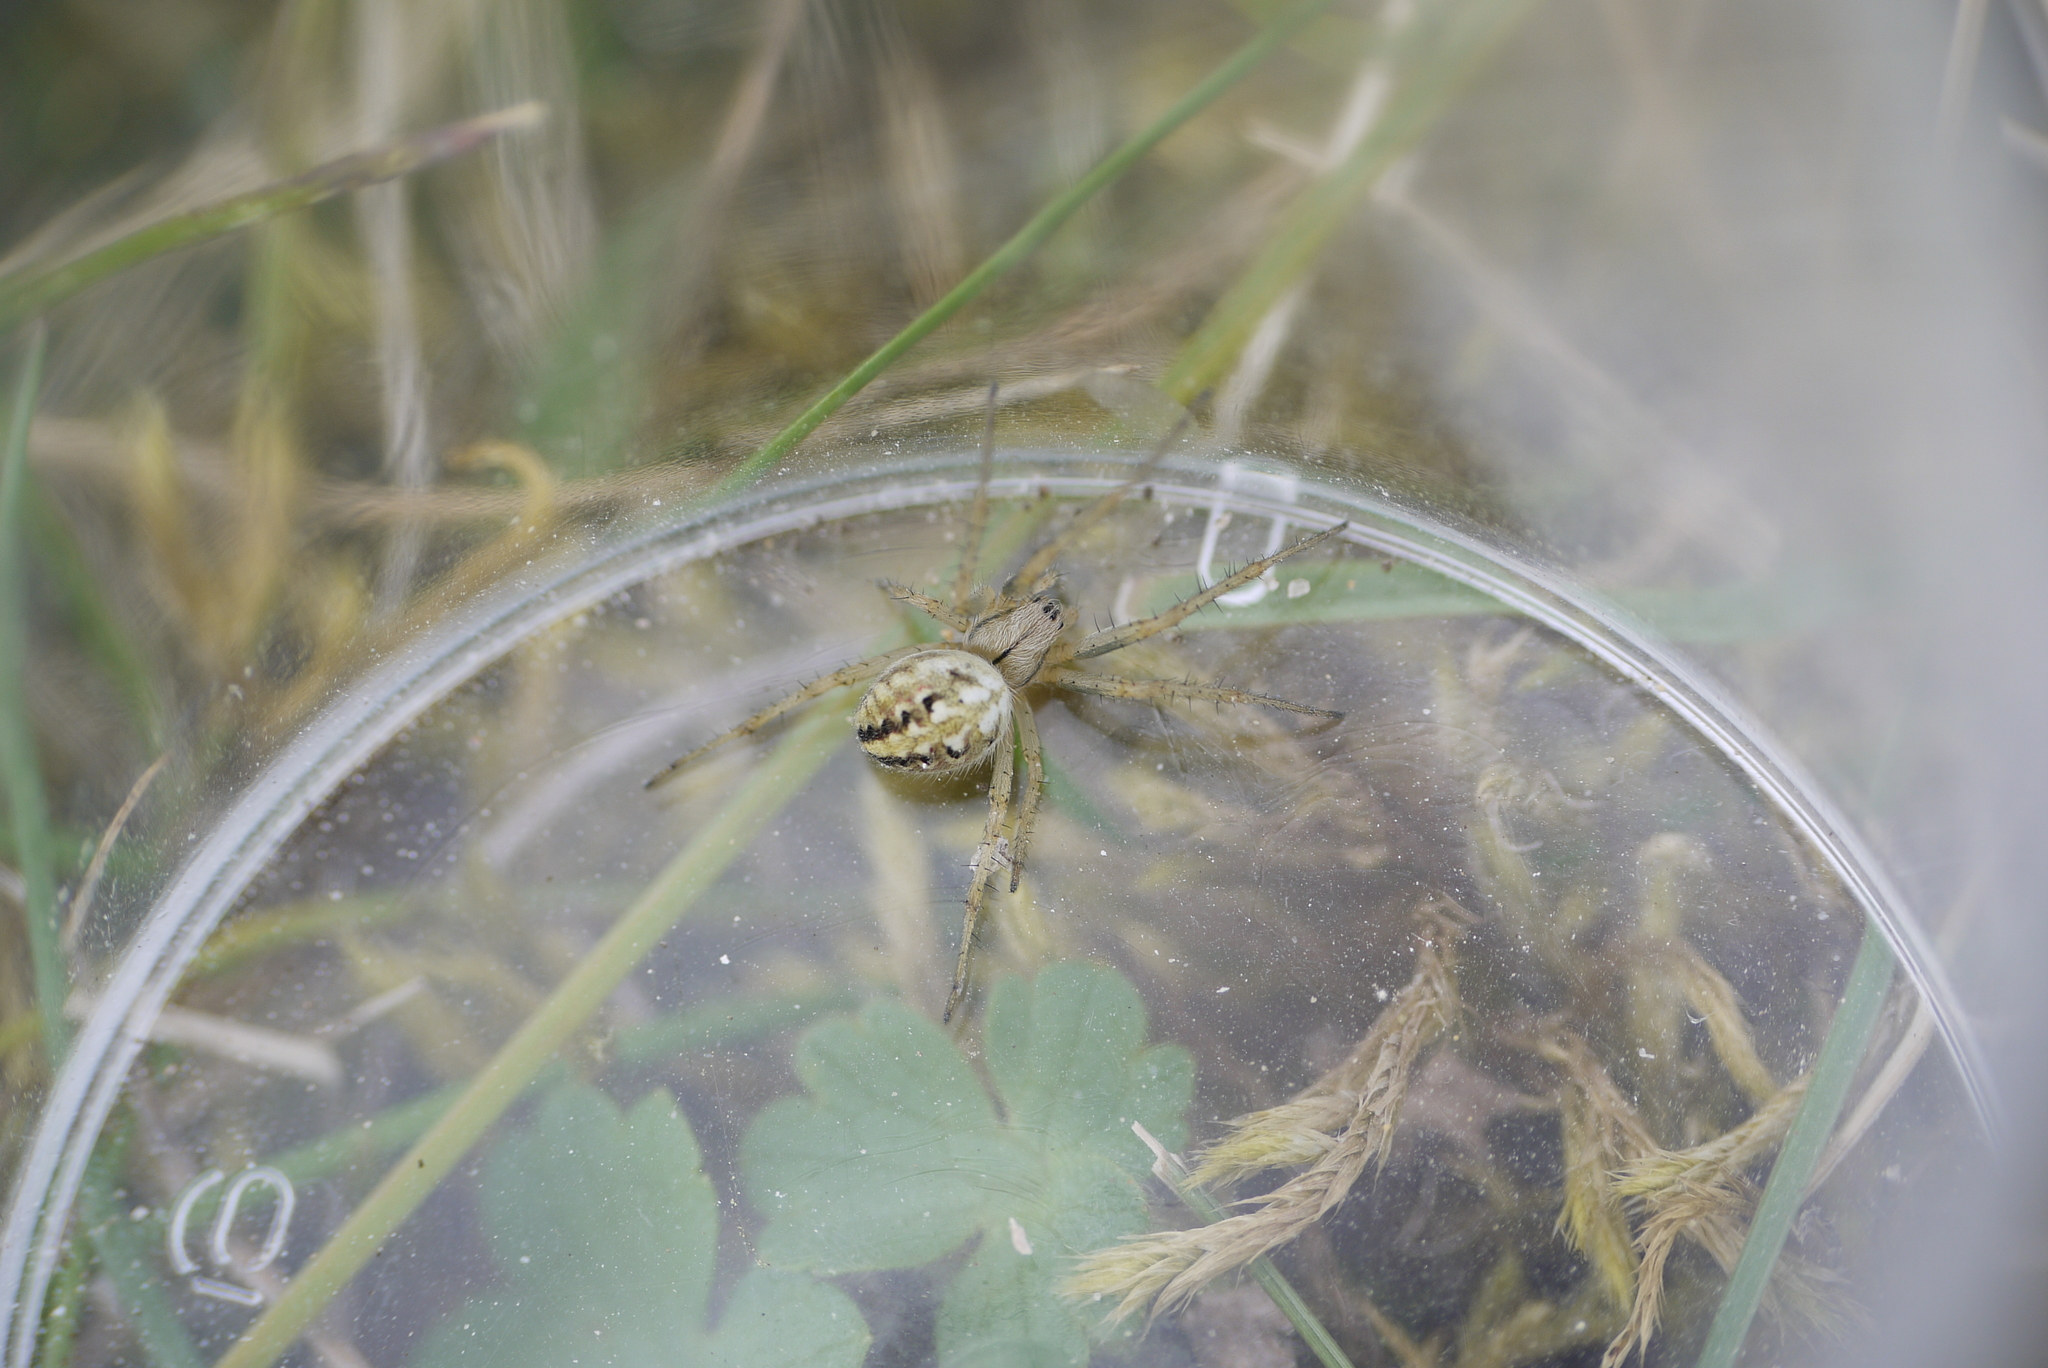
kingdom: Animalia
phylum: Arthropoda
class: Arachnida
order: Araneae
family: Araneidae
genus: Neoscona
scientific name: Neoscona adianta
